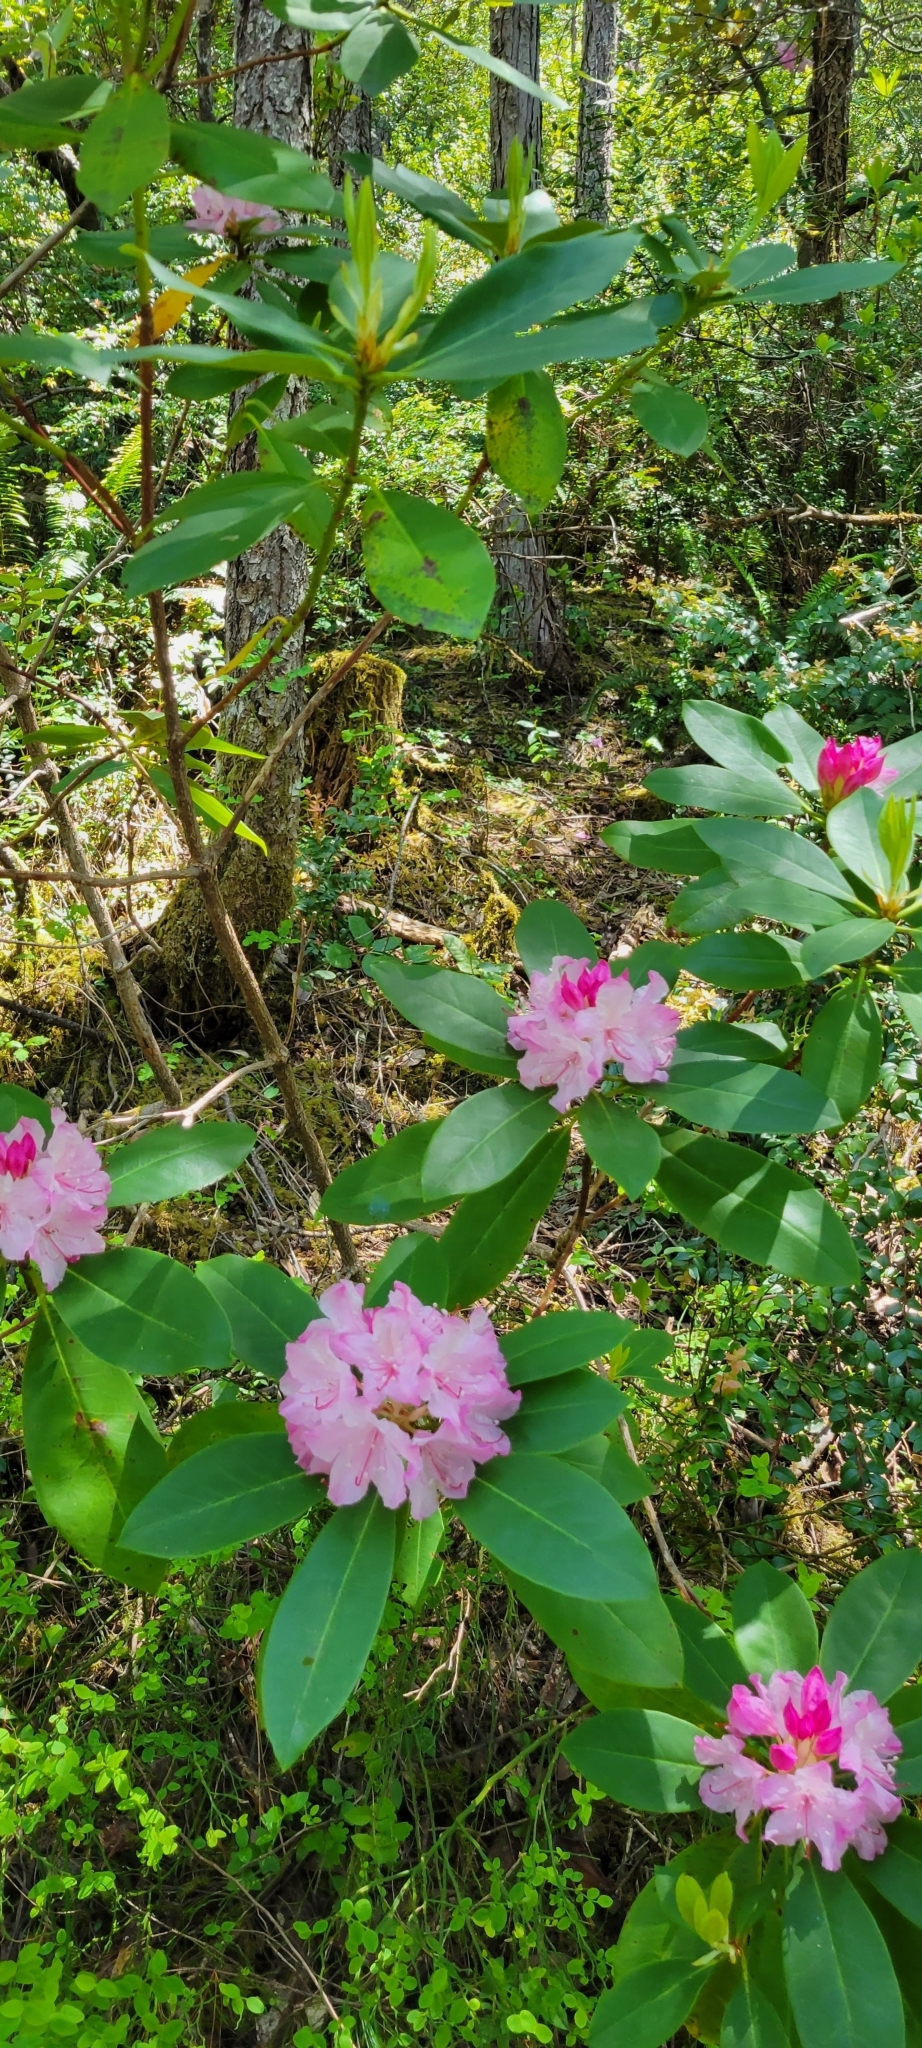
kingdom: Plantae
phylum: Tracheophyta
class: Magnoliopsida
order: Ericales
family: Ericaceae
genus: Rhododendron
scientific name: Rhododendron macrophyllum
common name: California rose bay
